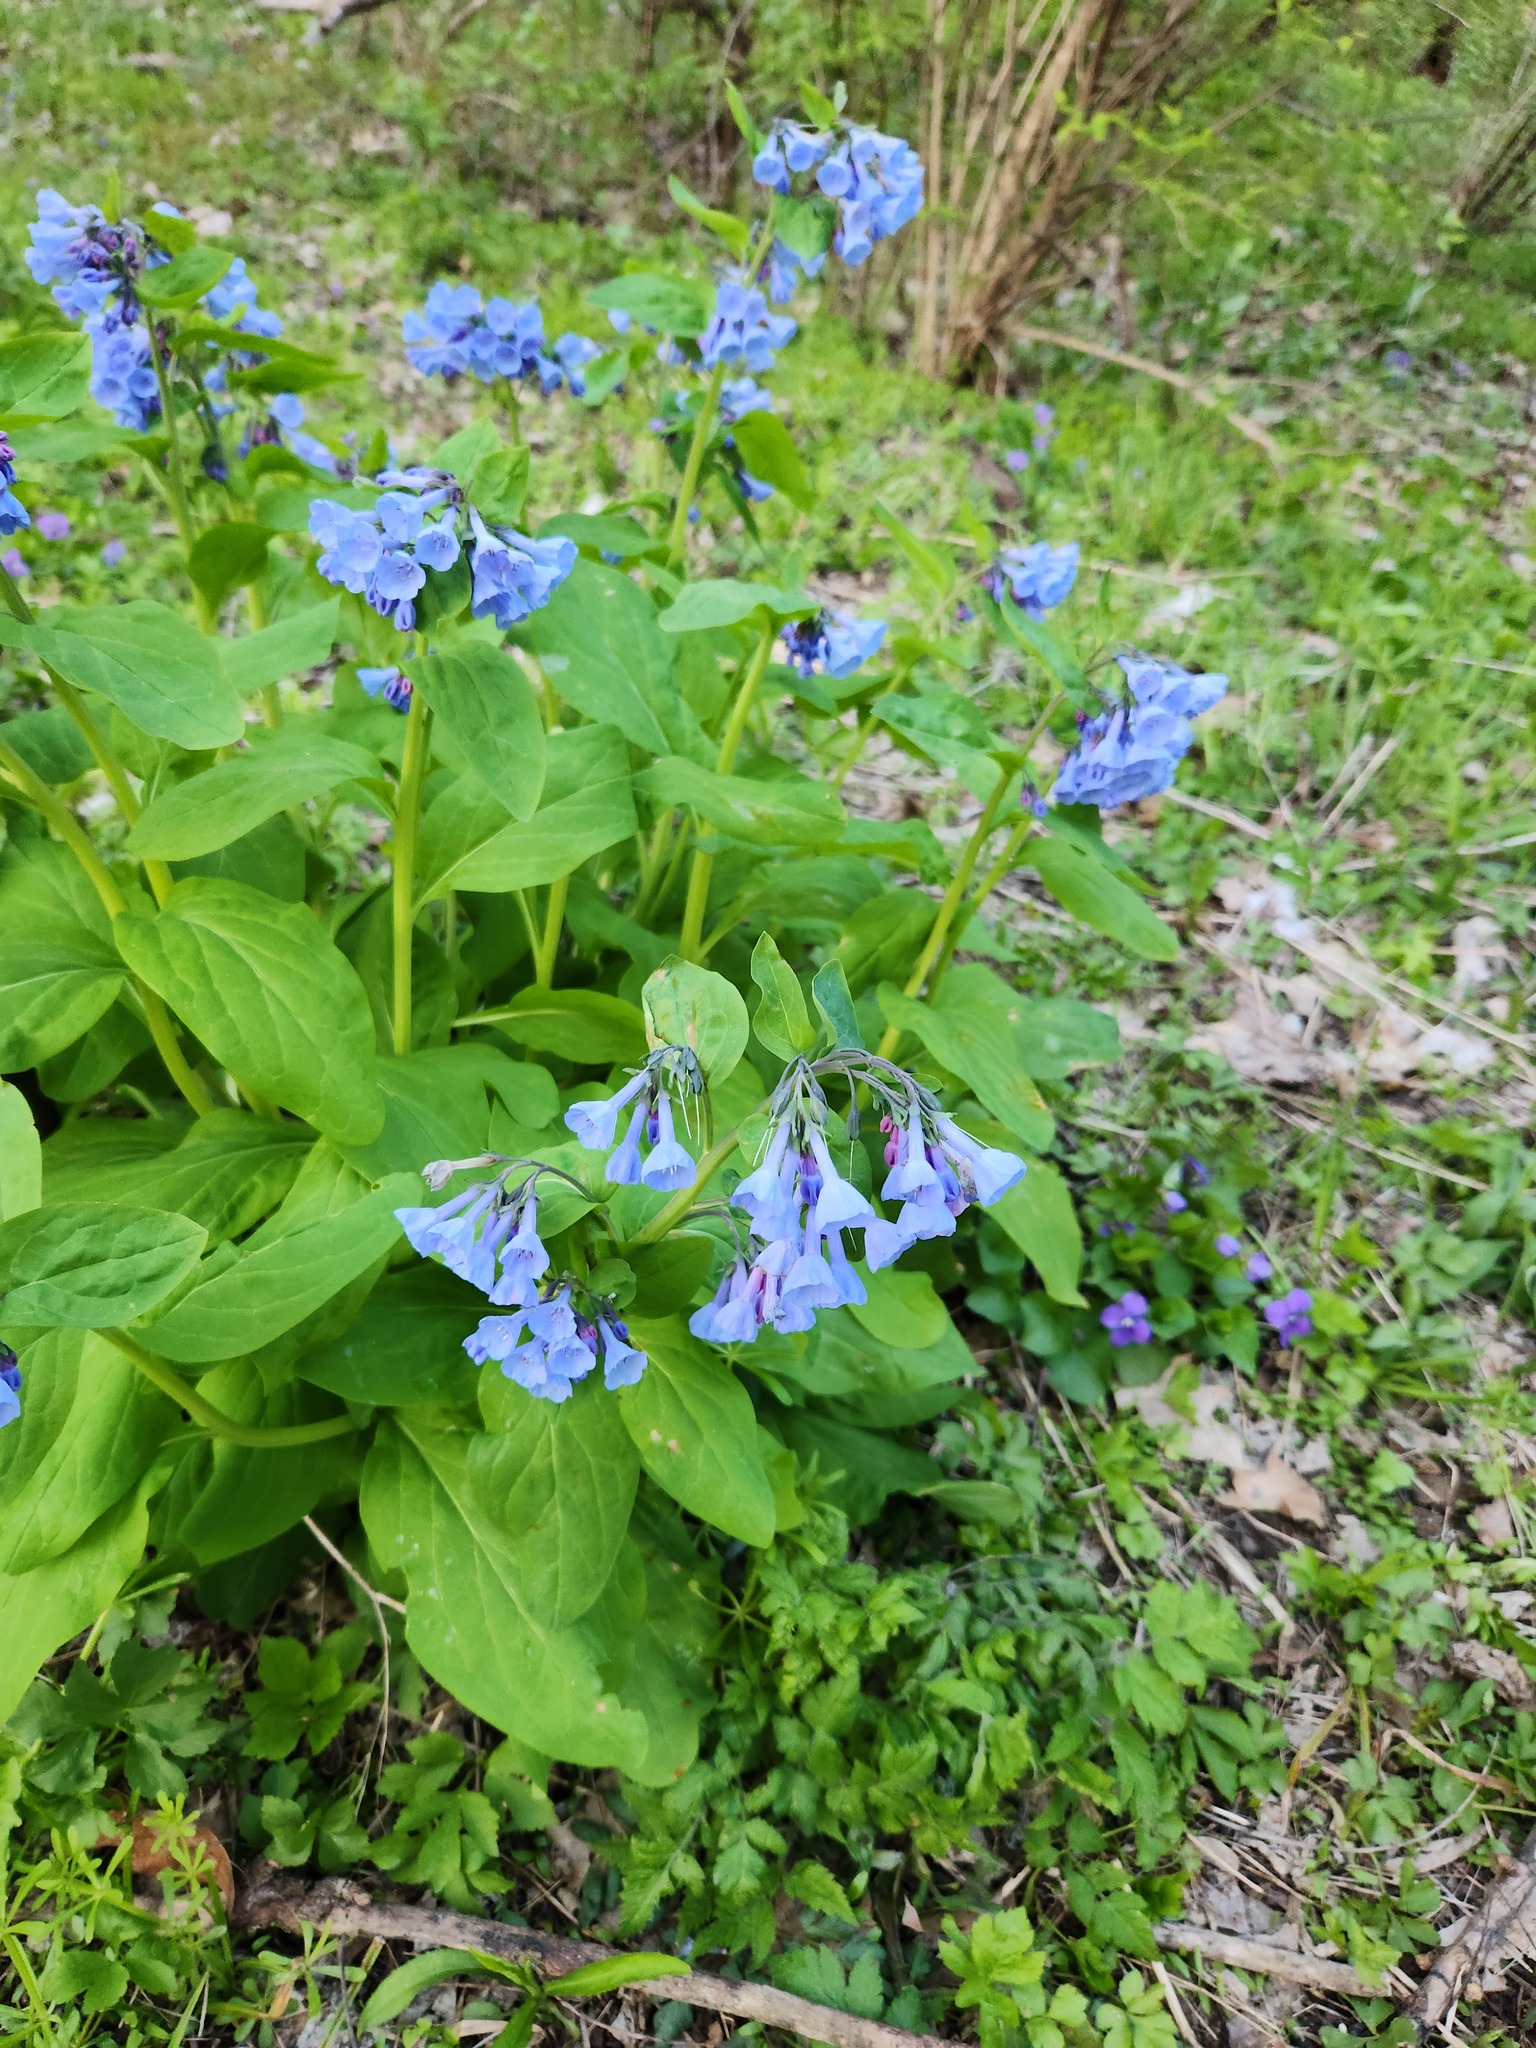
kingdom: Plantae
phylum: Tracheophyta
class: Magnoliopsida
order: Boraginales
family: Boraginaceae
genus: Mertensia
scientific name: Mertensia virginica
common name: Virginia bluebells
